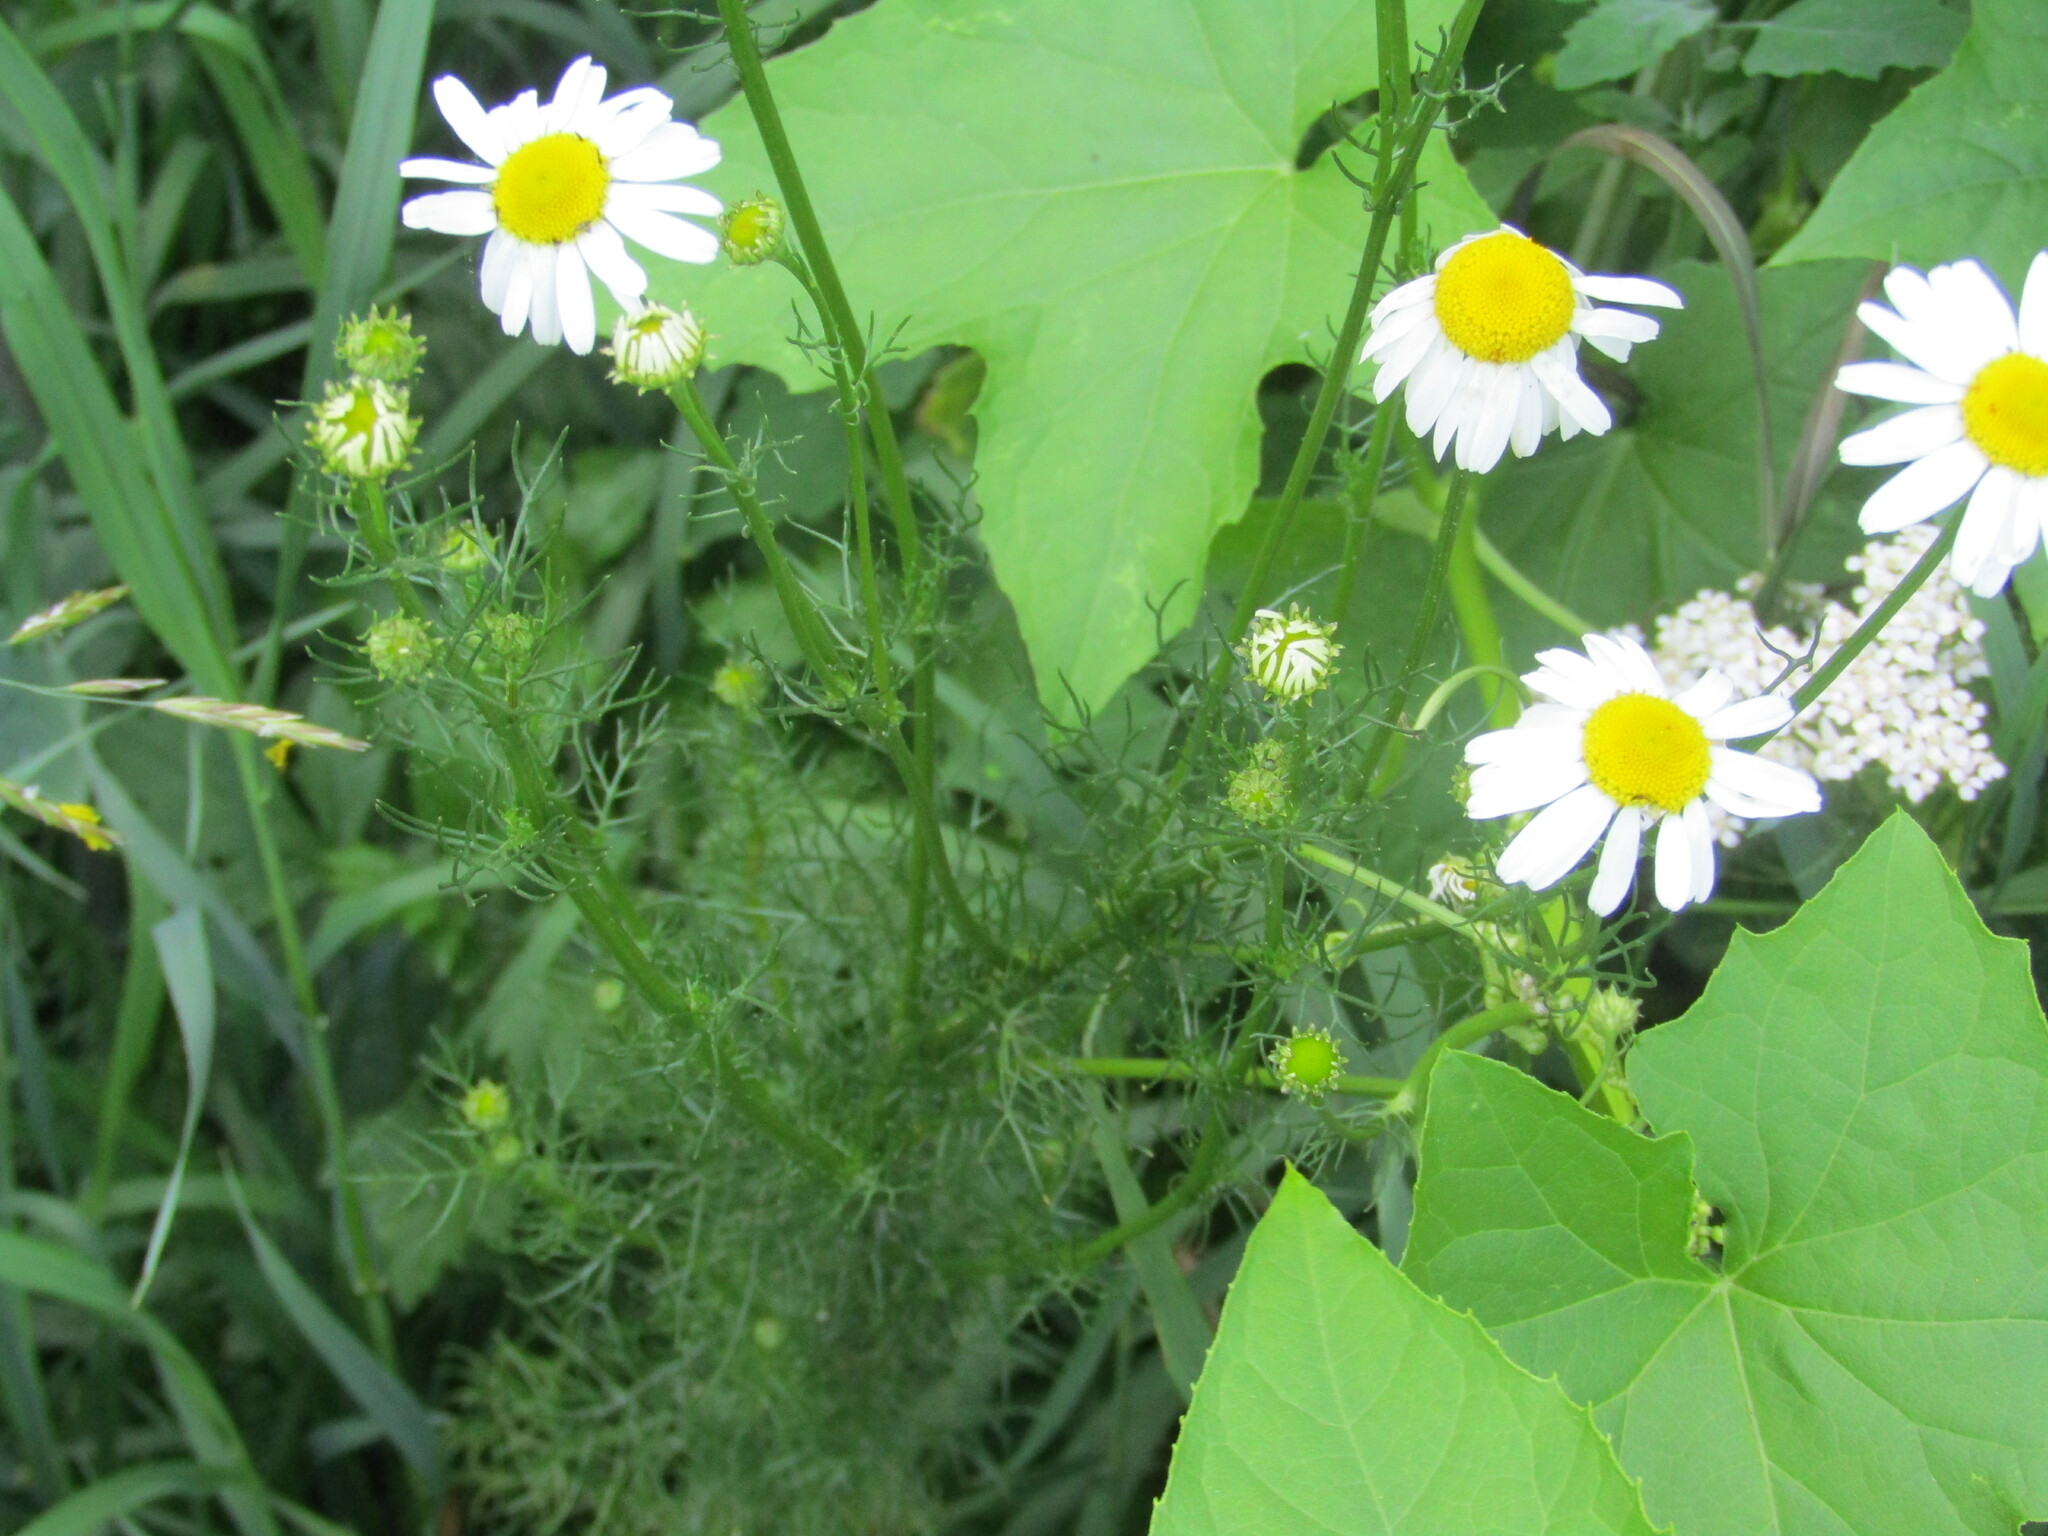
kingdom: Plantae
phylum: Tracheophyta
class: Magnoliopsida
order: Asterales
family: Asteraceae
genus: Tripleurospermum
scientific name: Tripleurospermum inodorum
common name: Scentless mayweed
